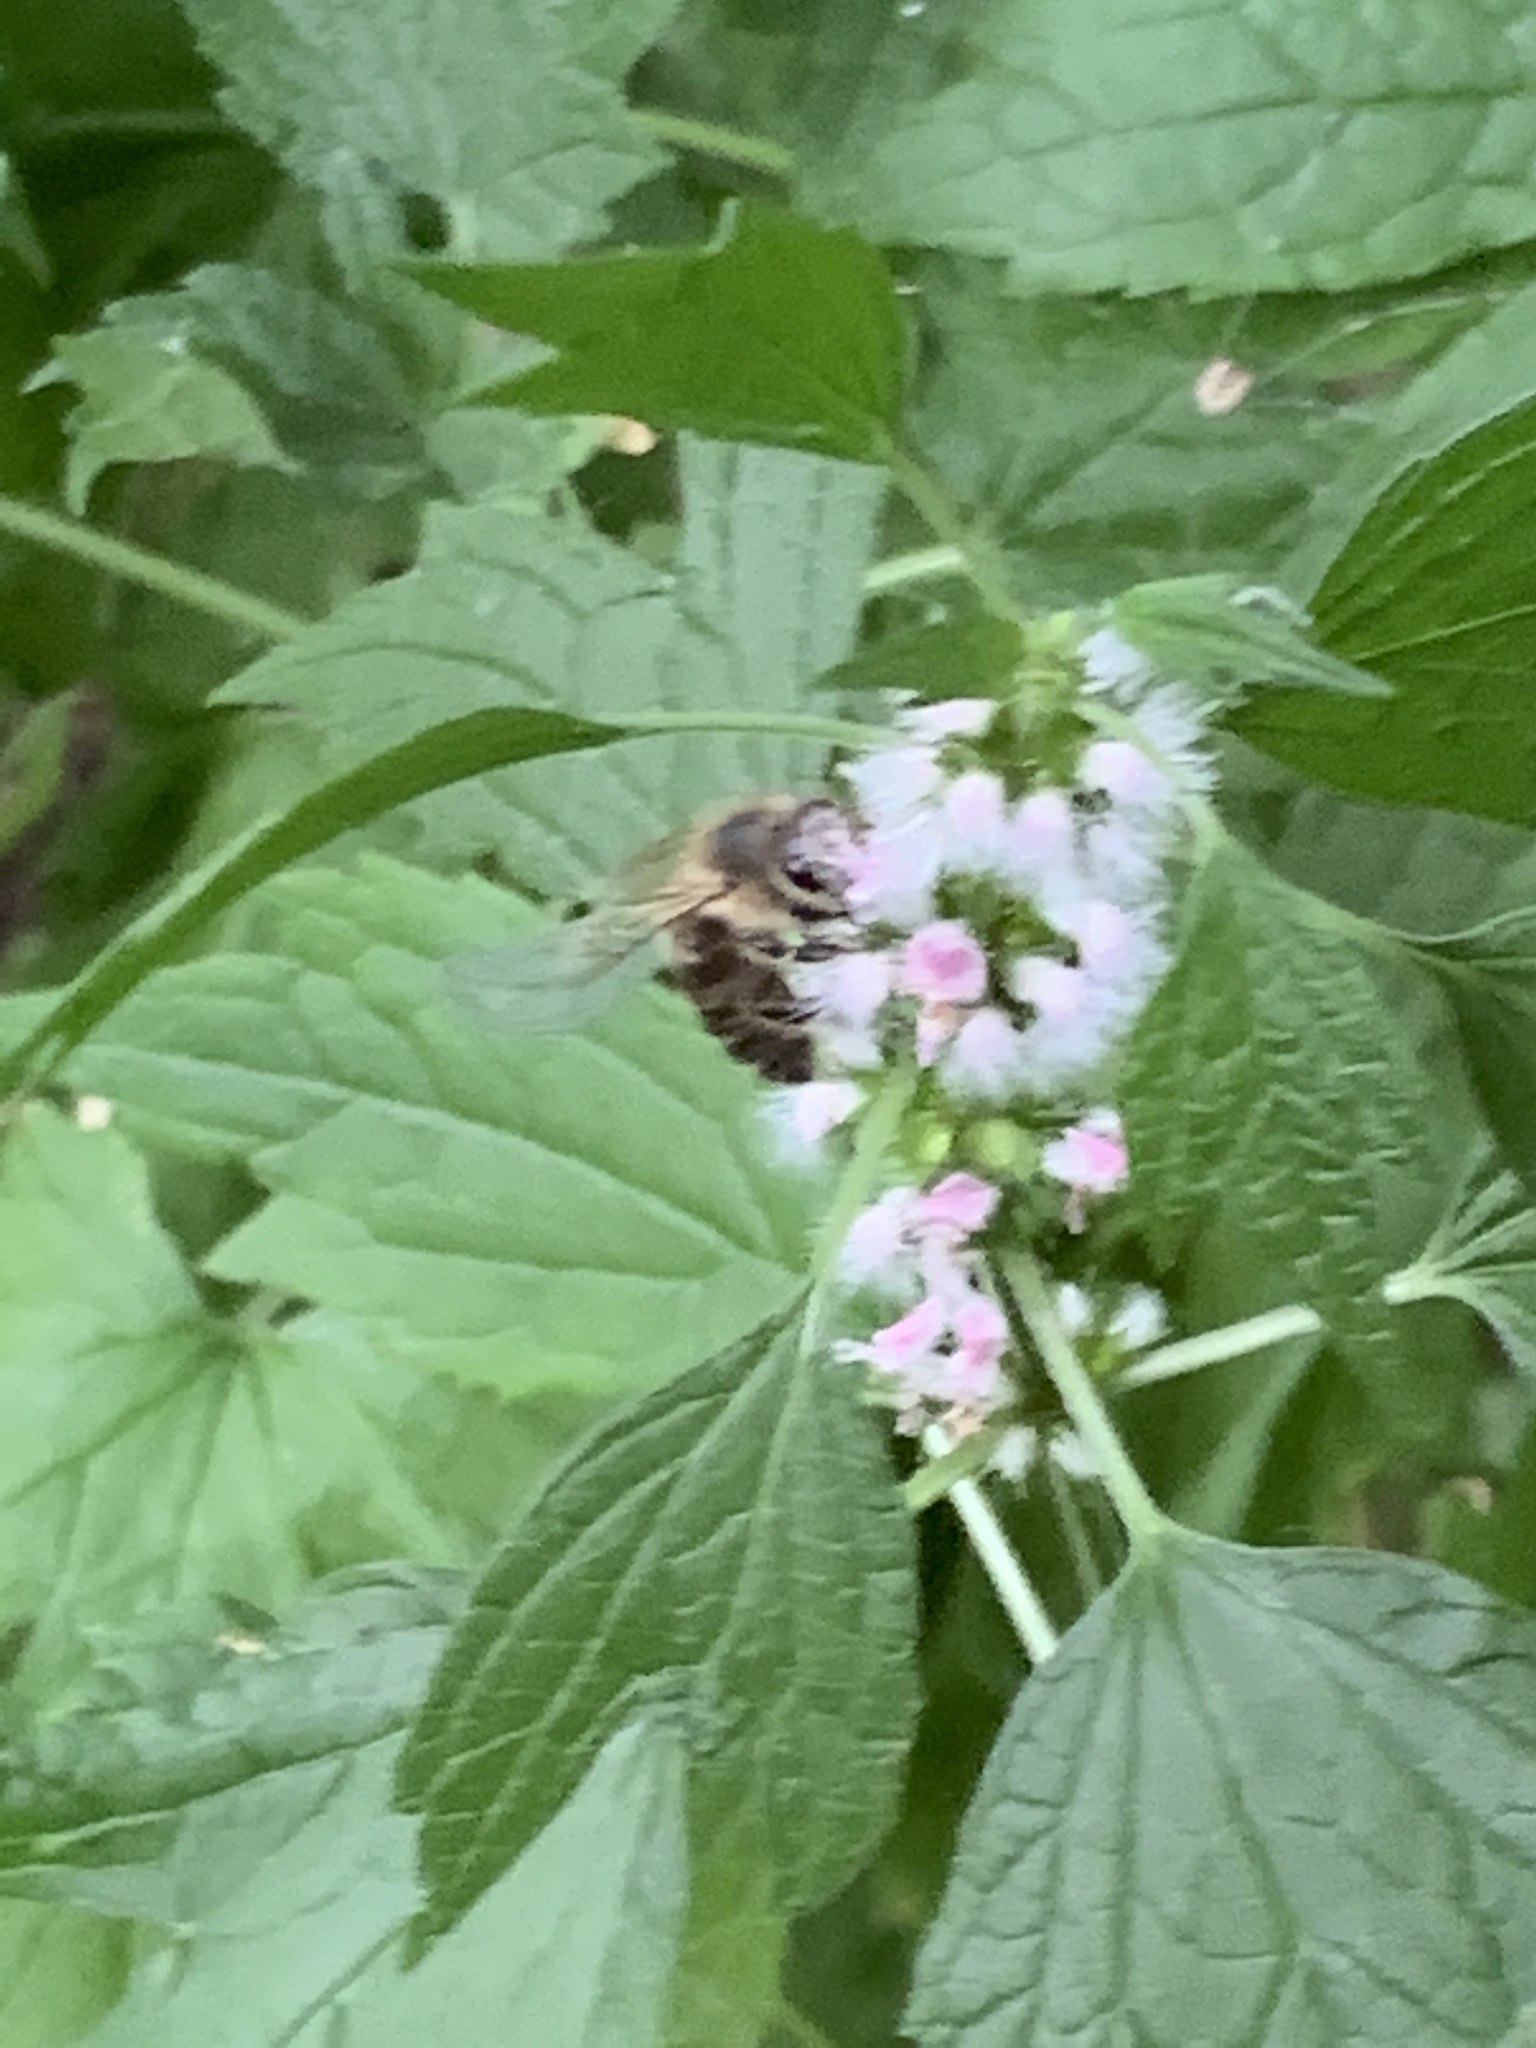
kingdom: Animalia
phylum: Arthropoda
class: Insecta
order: Hymenoptera
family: Apidae
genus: Apis
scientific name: Apis mellifera
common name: Honey bee
